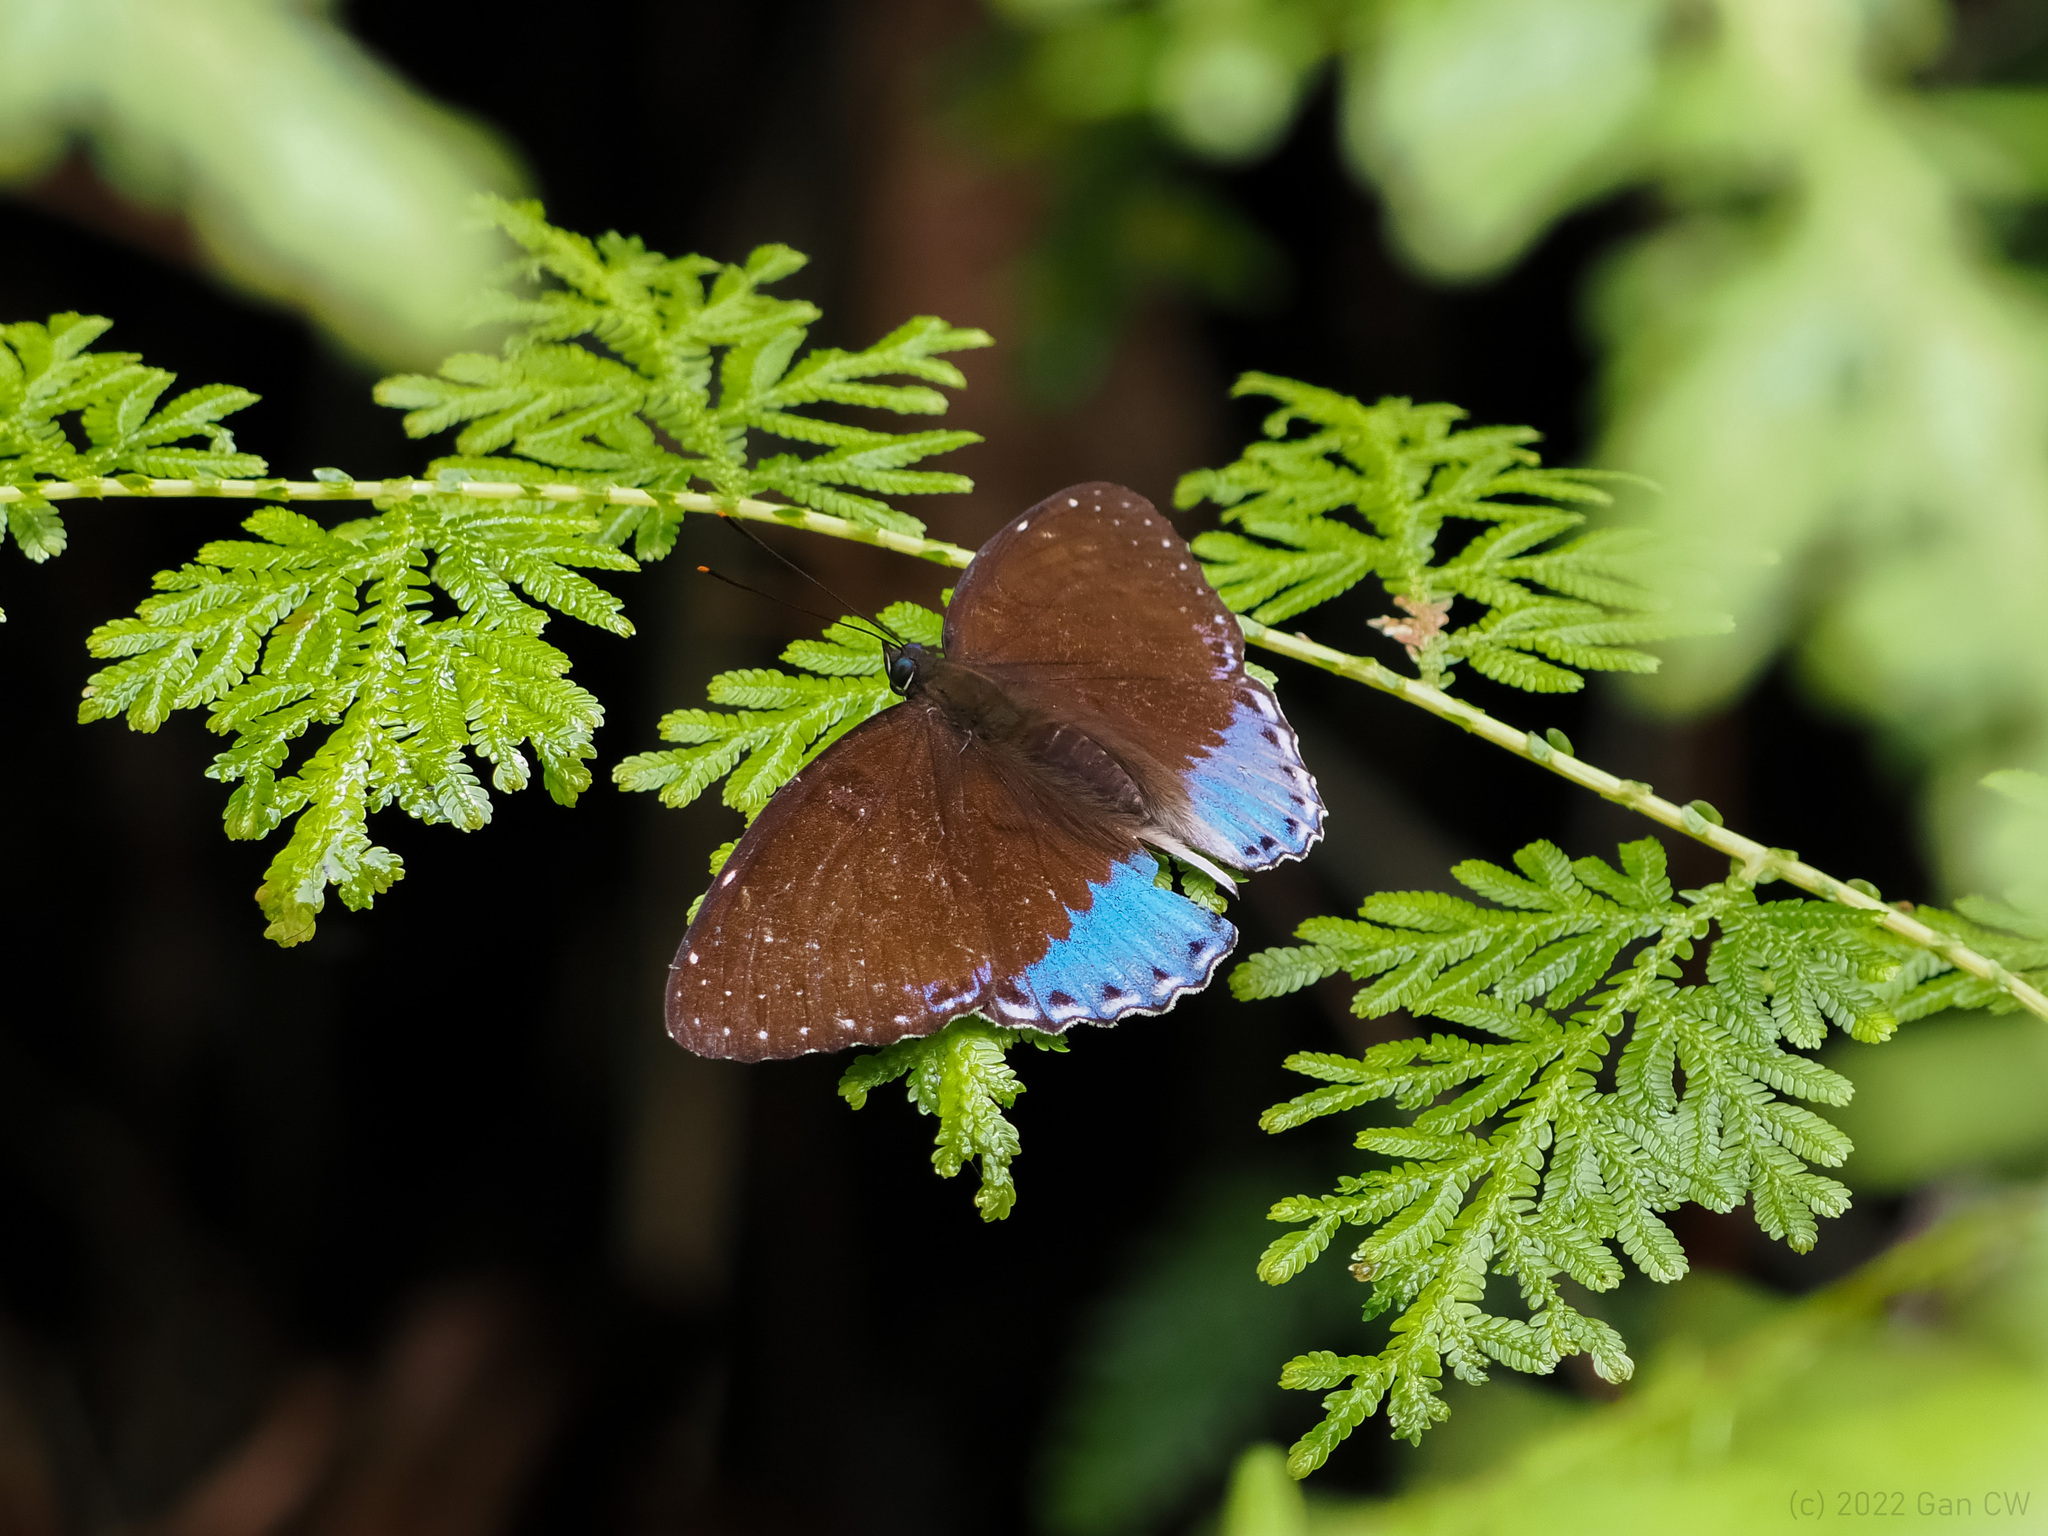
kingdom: Animalia
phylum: Arthropoda
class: Insecta
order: Lepidoptera
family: Nymphalidae
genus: Stibochiona
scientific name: Stibochiona coresia
